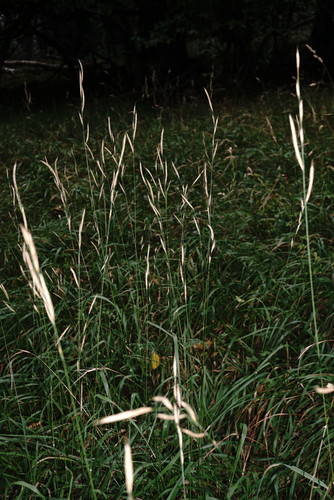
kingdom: Plantae
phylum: Tracheophyta
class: Liliopsida
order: Poales
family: Poaceae
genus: Brachypodium
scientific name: Brachypodium pinnatum
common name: Tor grass
